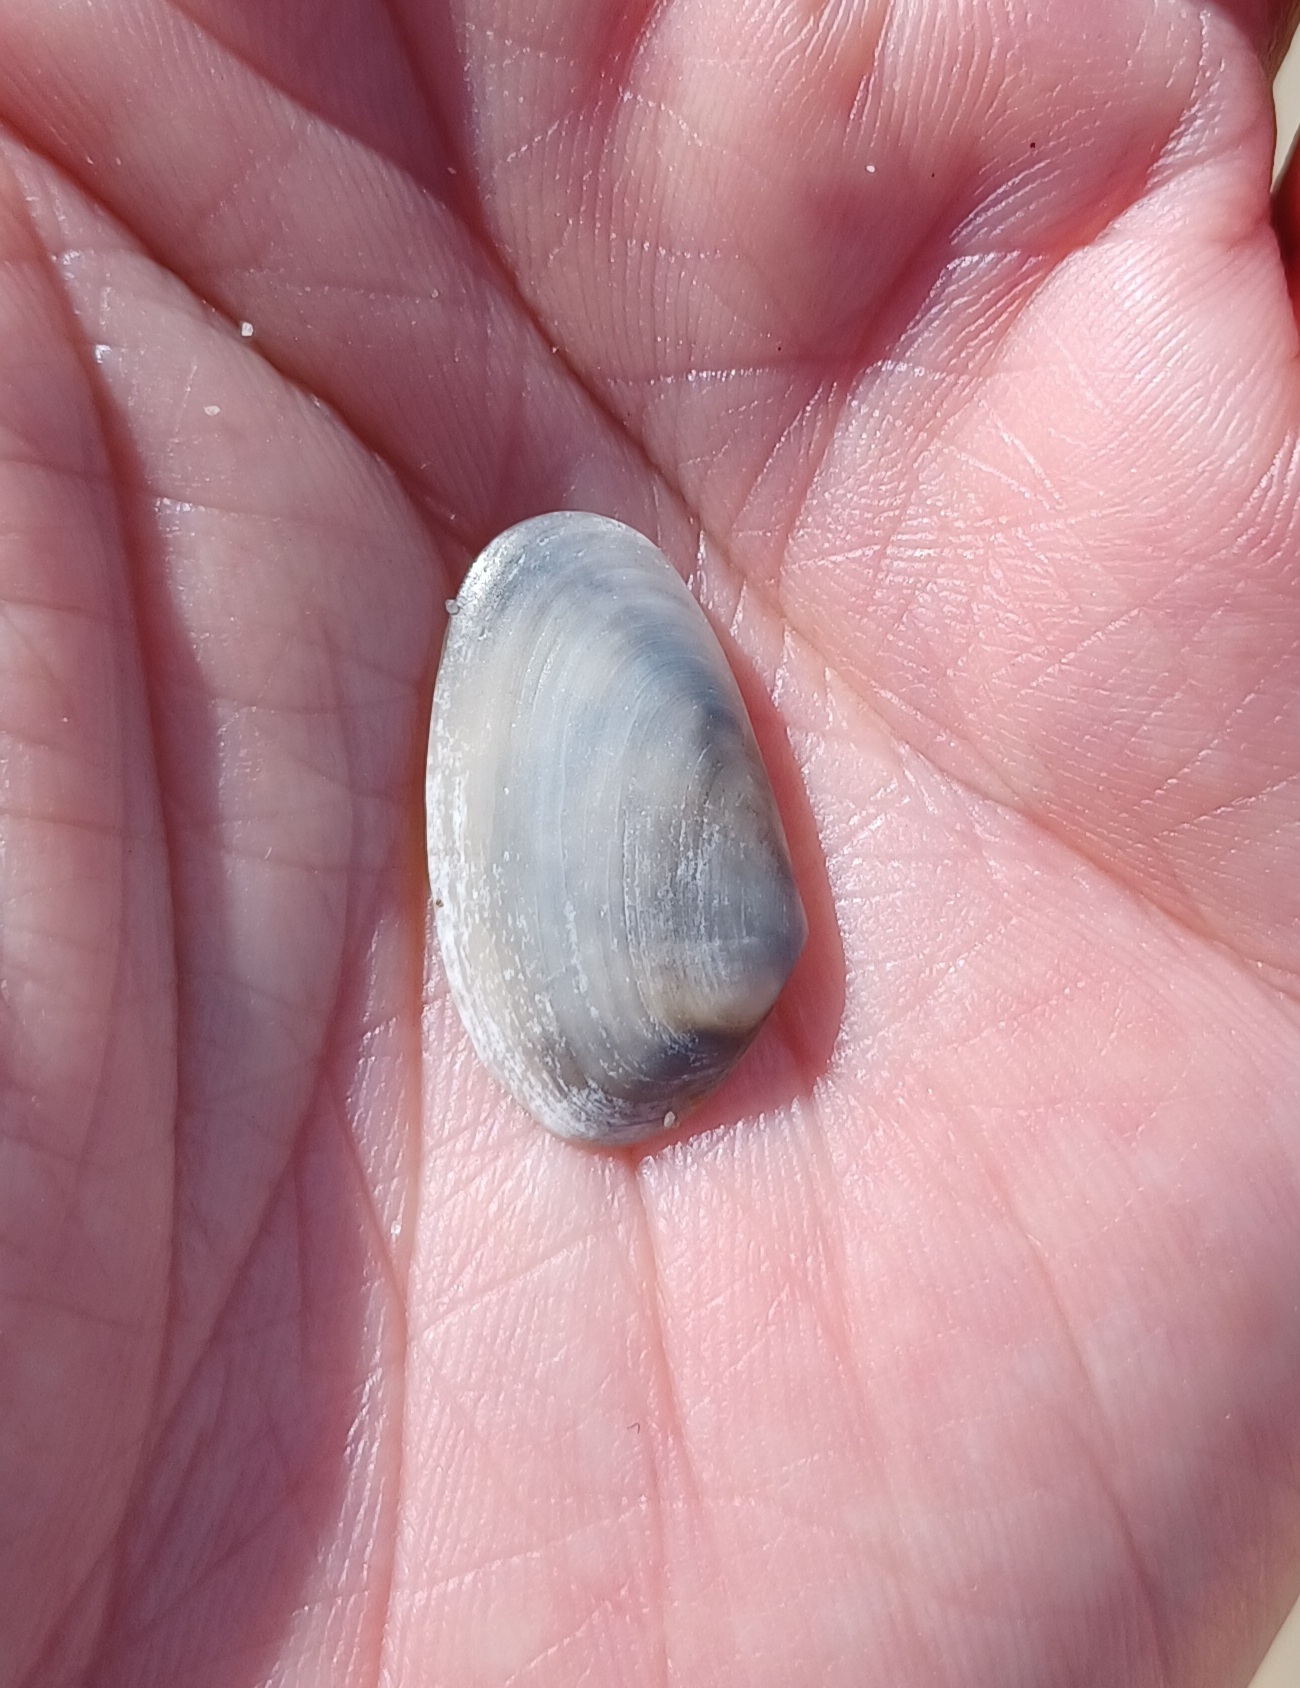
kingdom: Animalia
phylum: Mollusca
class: Bivalvia
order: Venerida
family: Mesodesmatidae
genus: Paphies
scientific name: Paphies angusta
